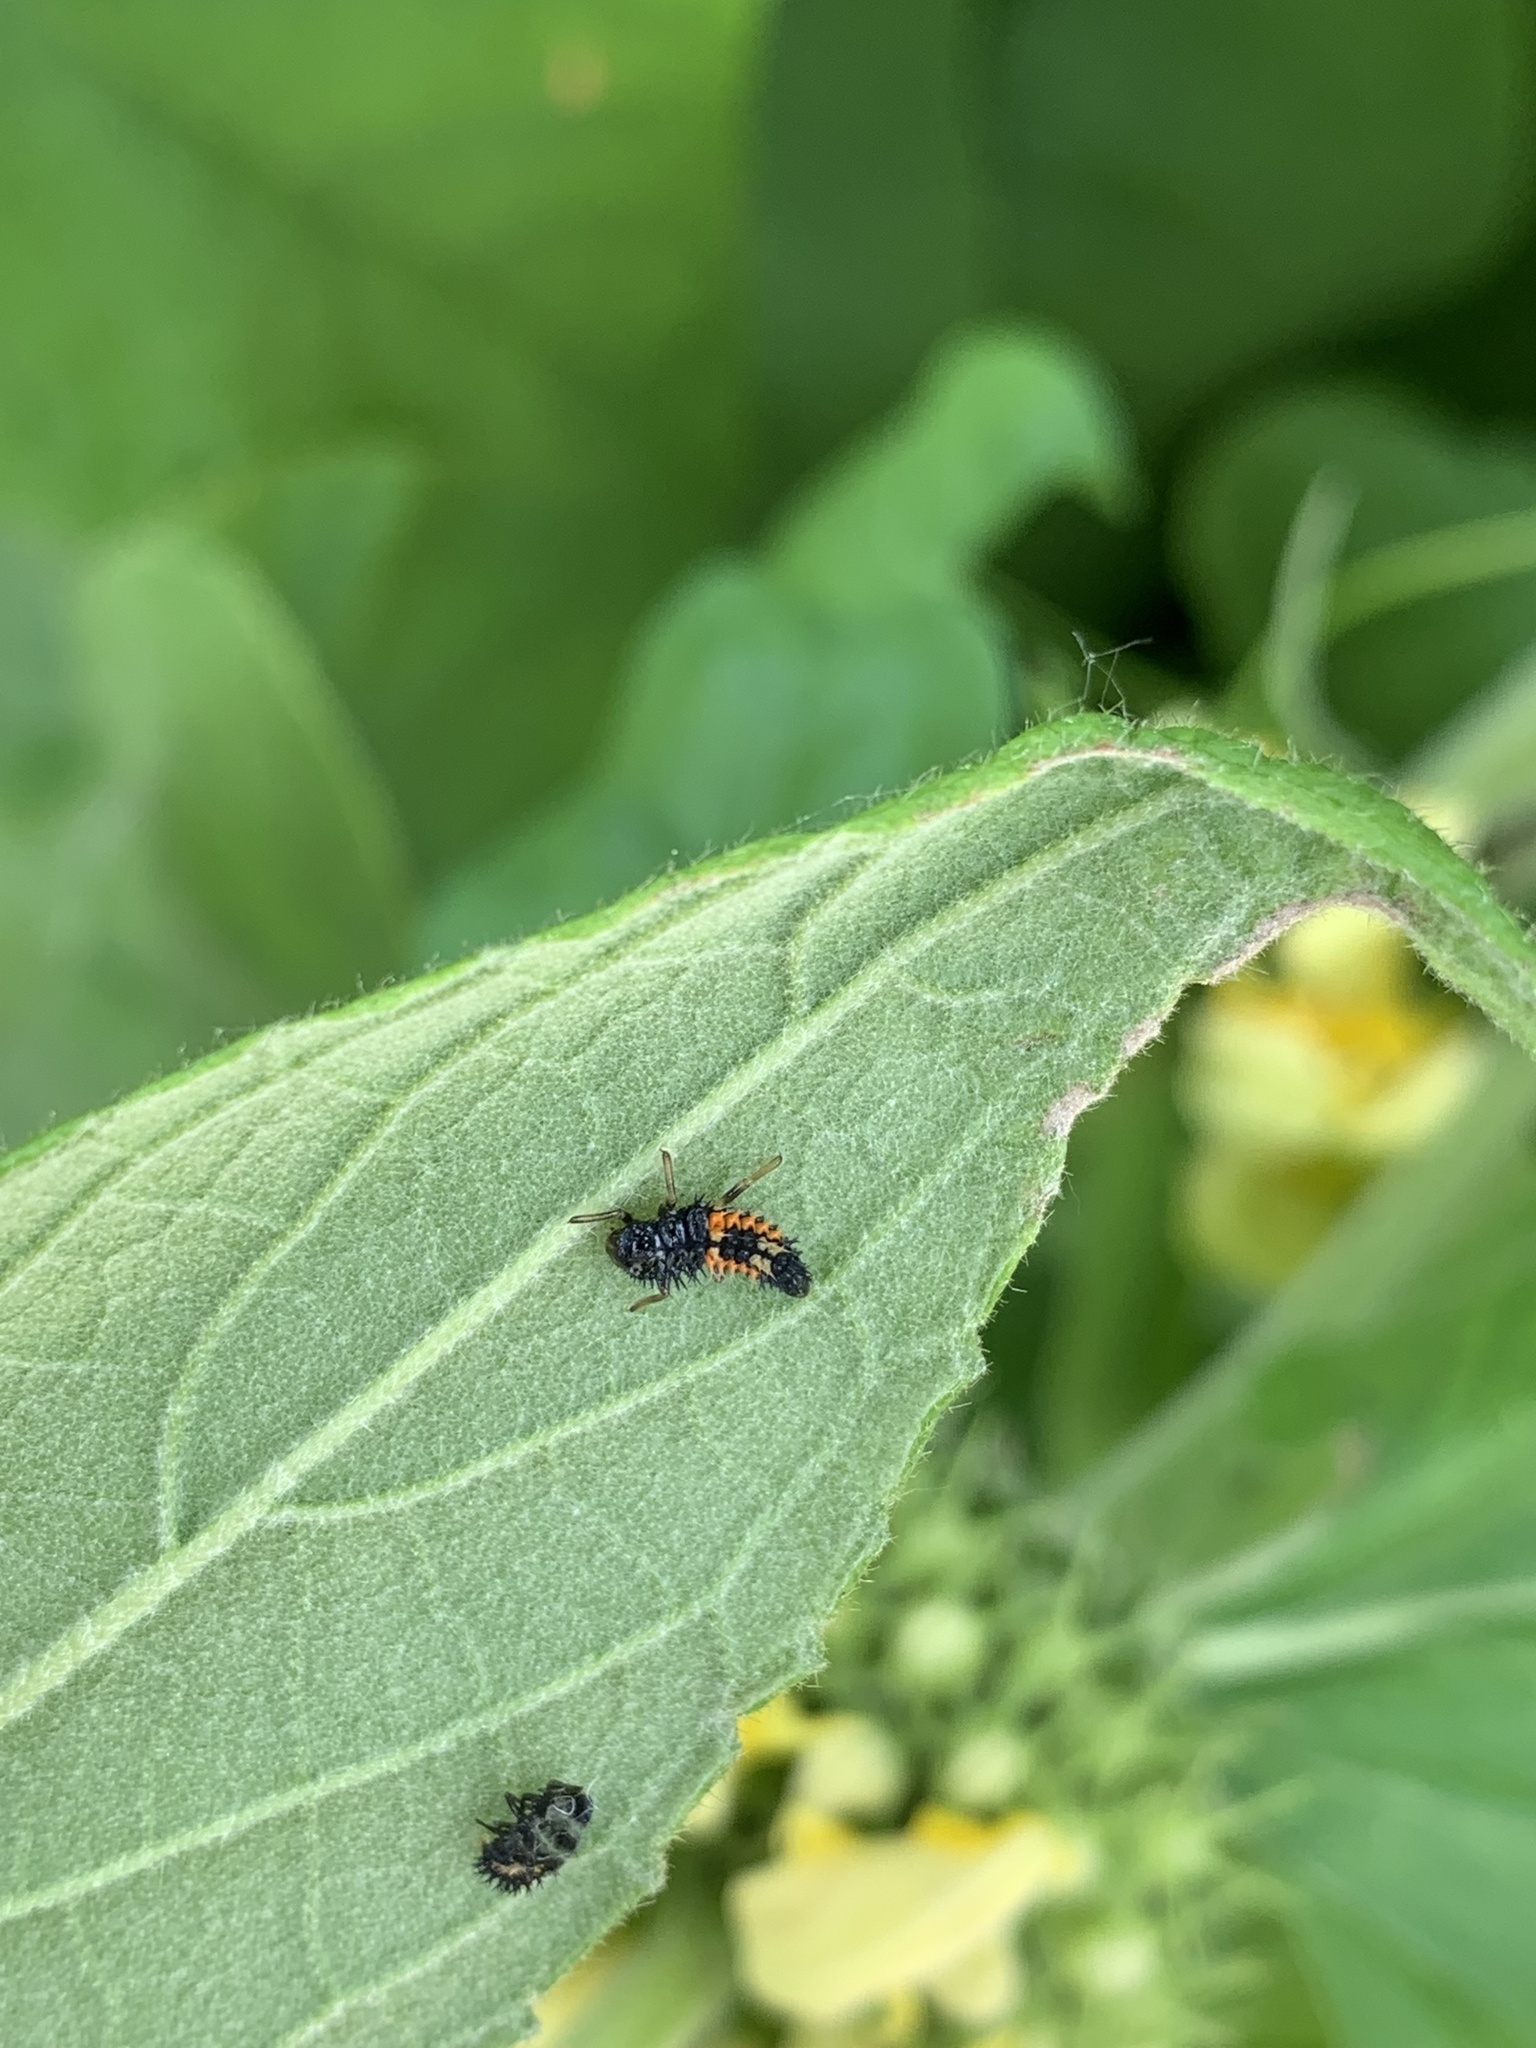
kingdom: Animalia
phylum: Arthropoda
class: Insecta
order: Coleoptera
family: Coccinellidae
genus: Harmonia
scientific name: Harmonia axyridis
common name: Harlequin ladybird
